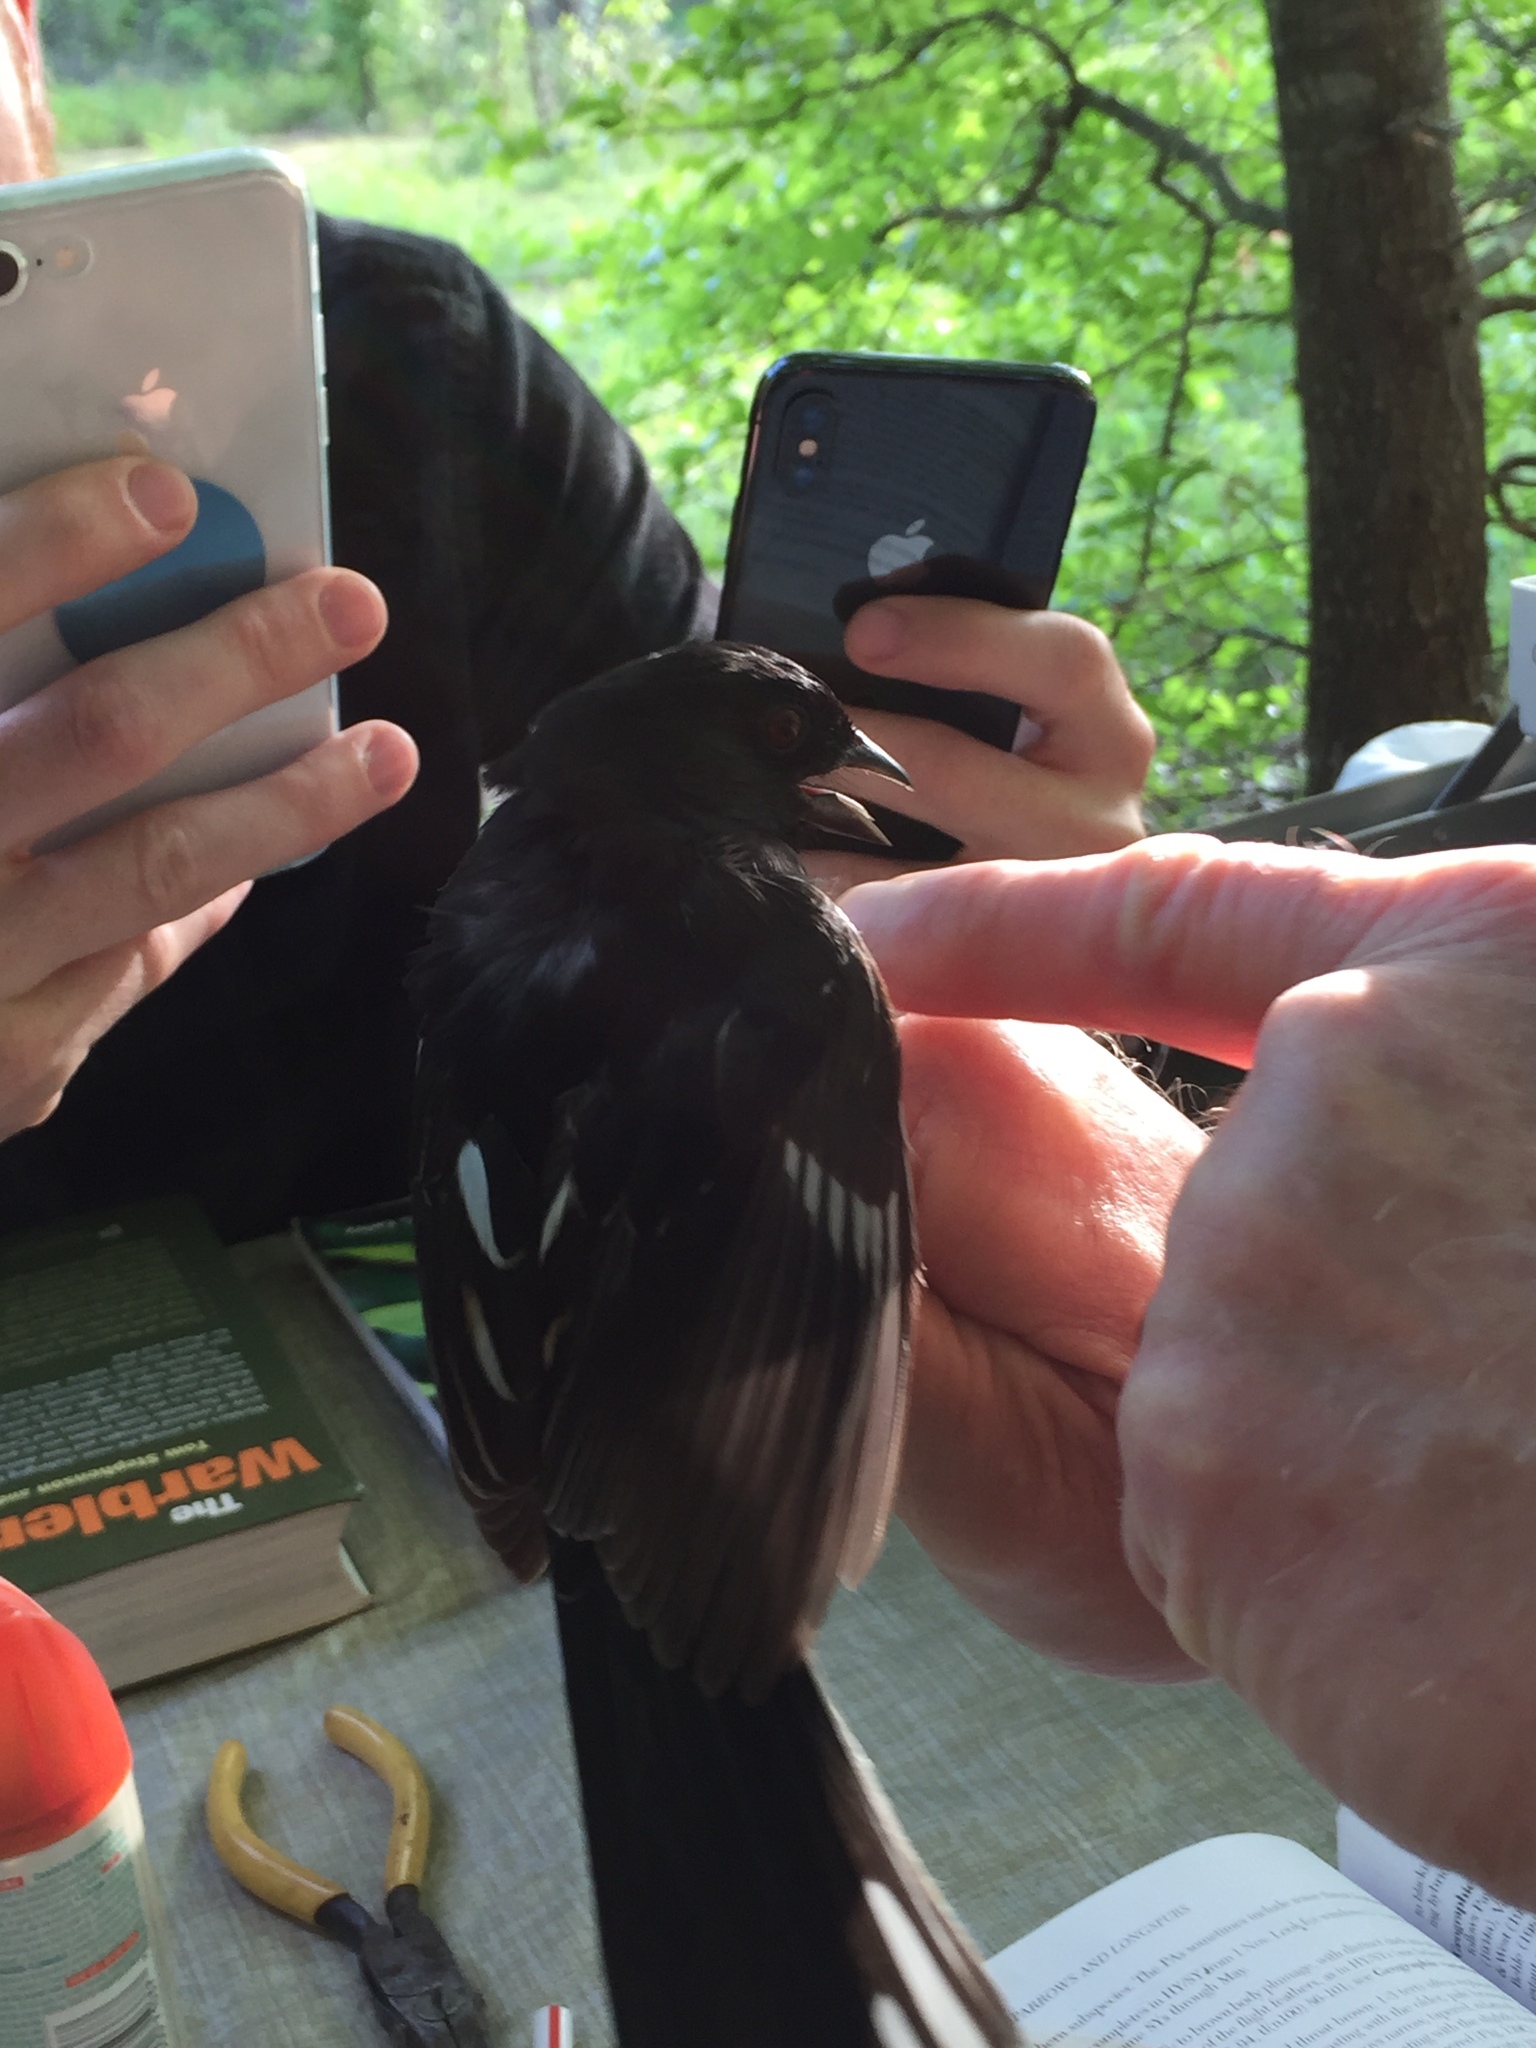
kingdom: Animalia
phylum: Chordata
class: Aves
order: Passeriformes
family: Passerellidae
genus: Pipilo
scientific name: Pipilo erythrophthalmus
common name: Eastern towhee
